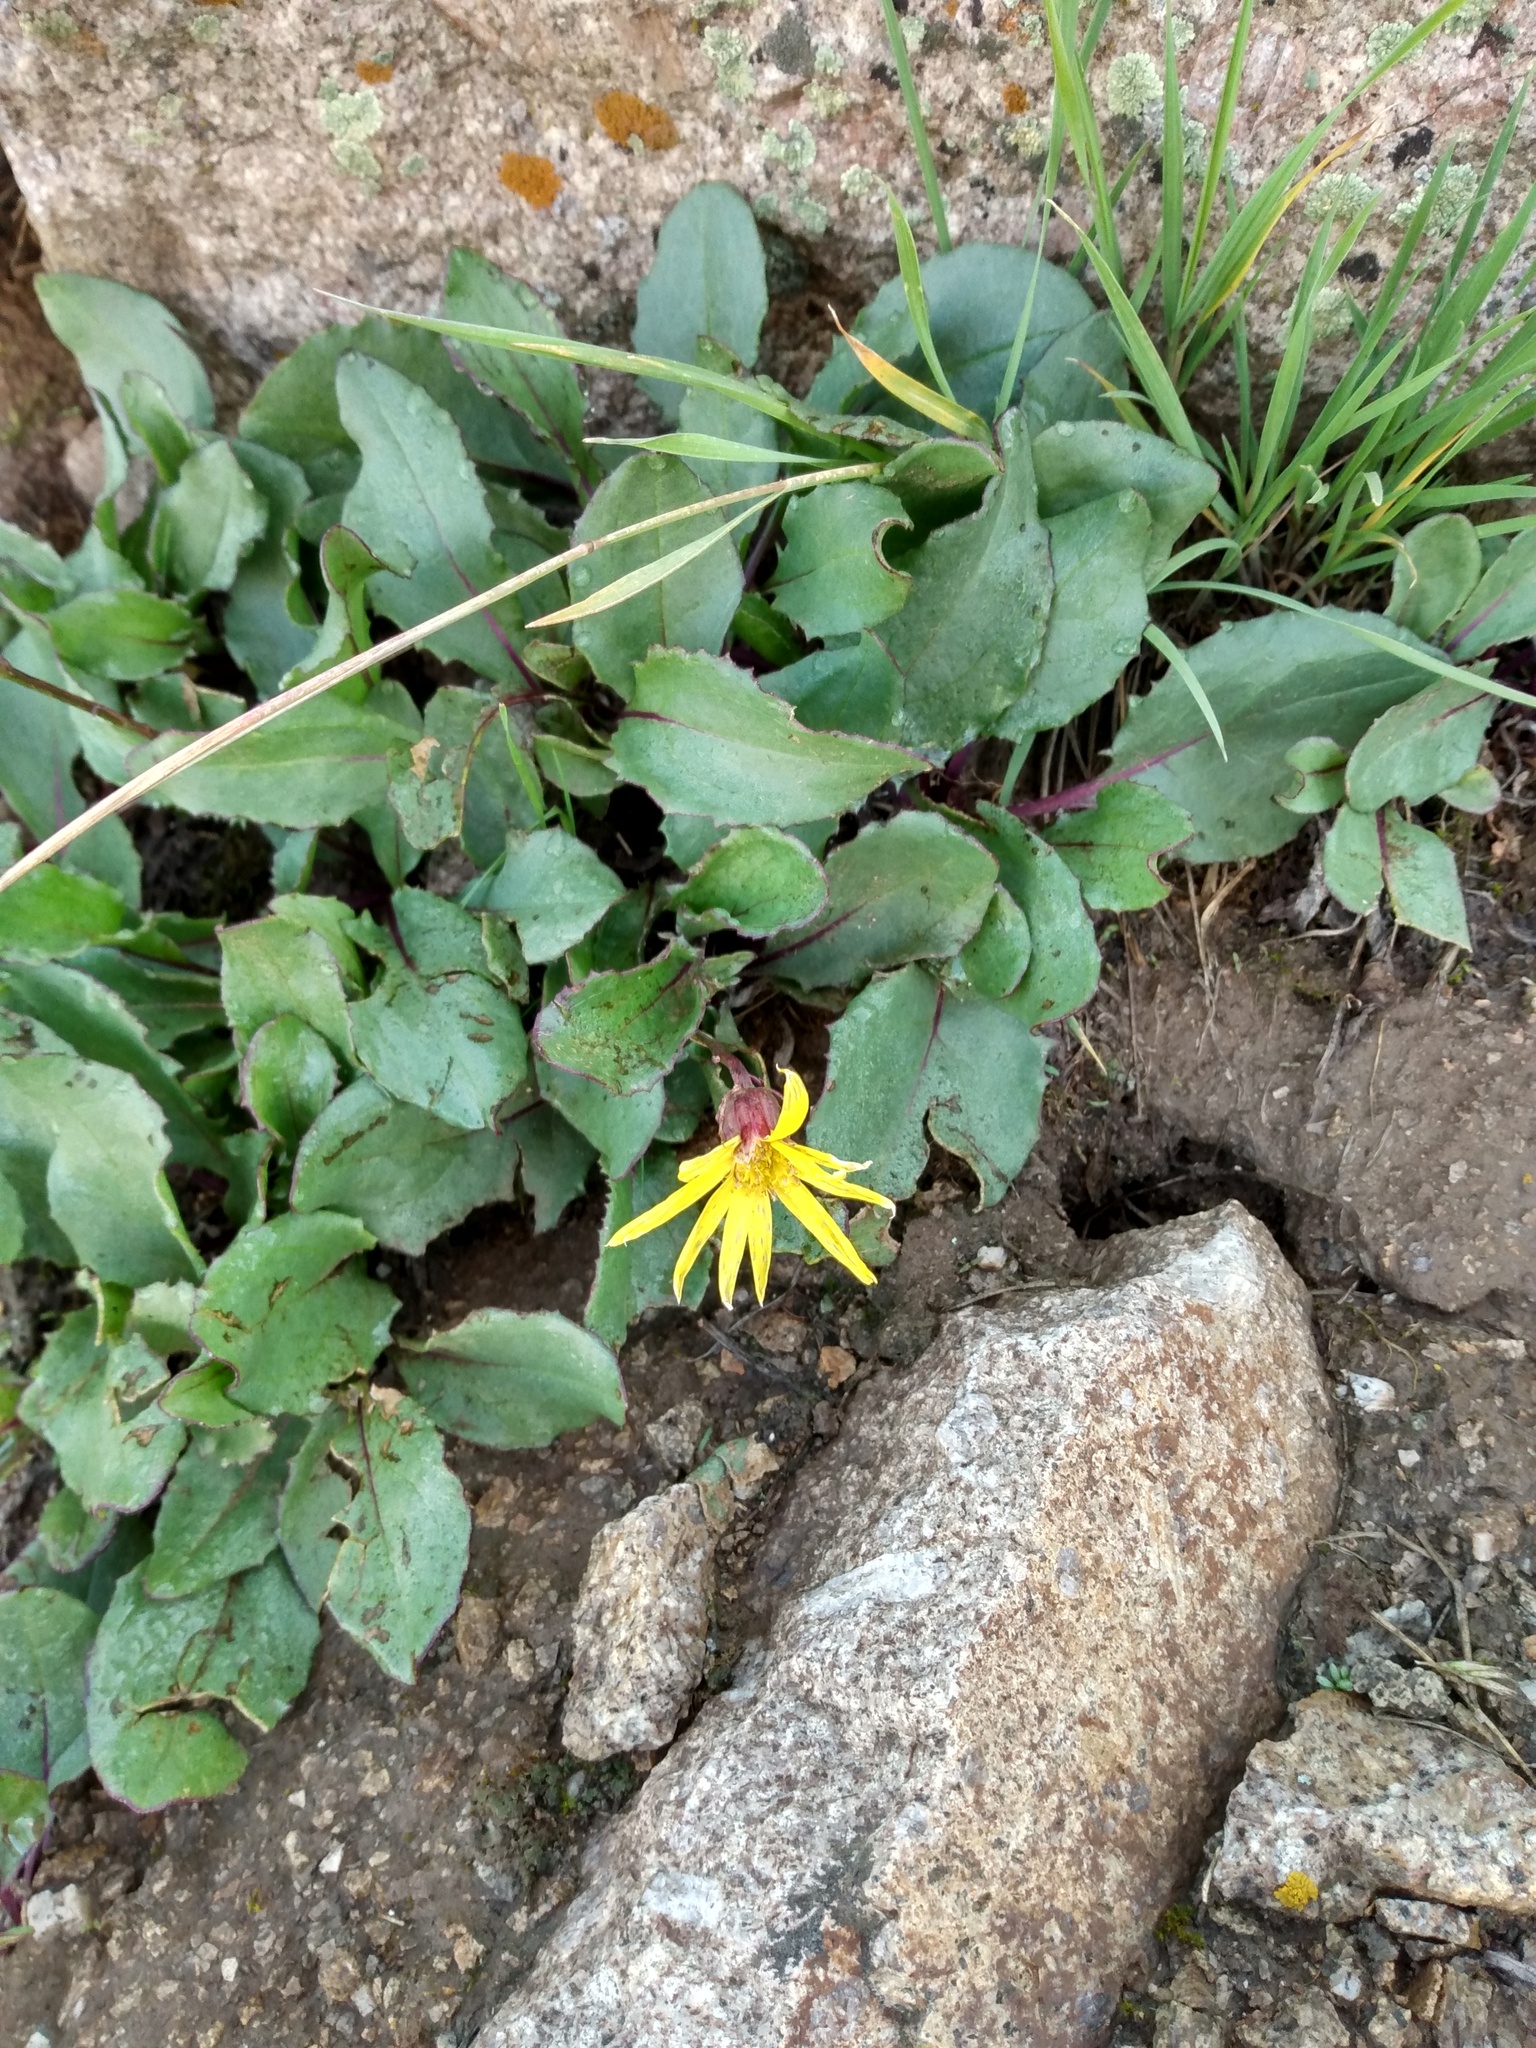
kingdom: Plantae
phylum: Tracheophyta
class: Magnoliopsida
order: Asterales
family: Asteraceae
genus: Senecio
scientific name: Senecio amplectens
